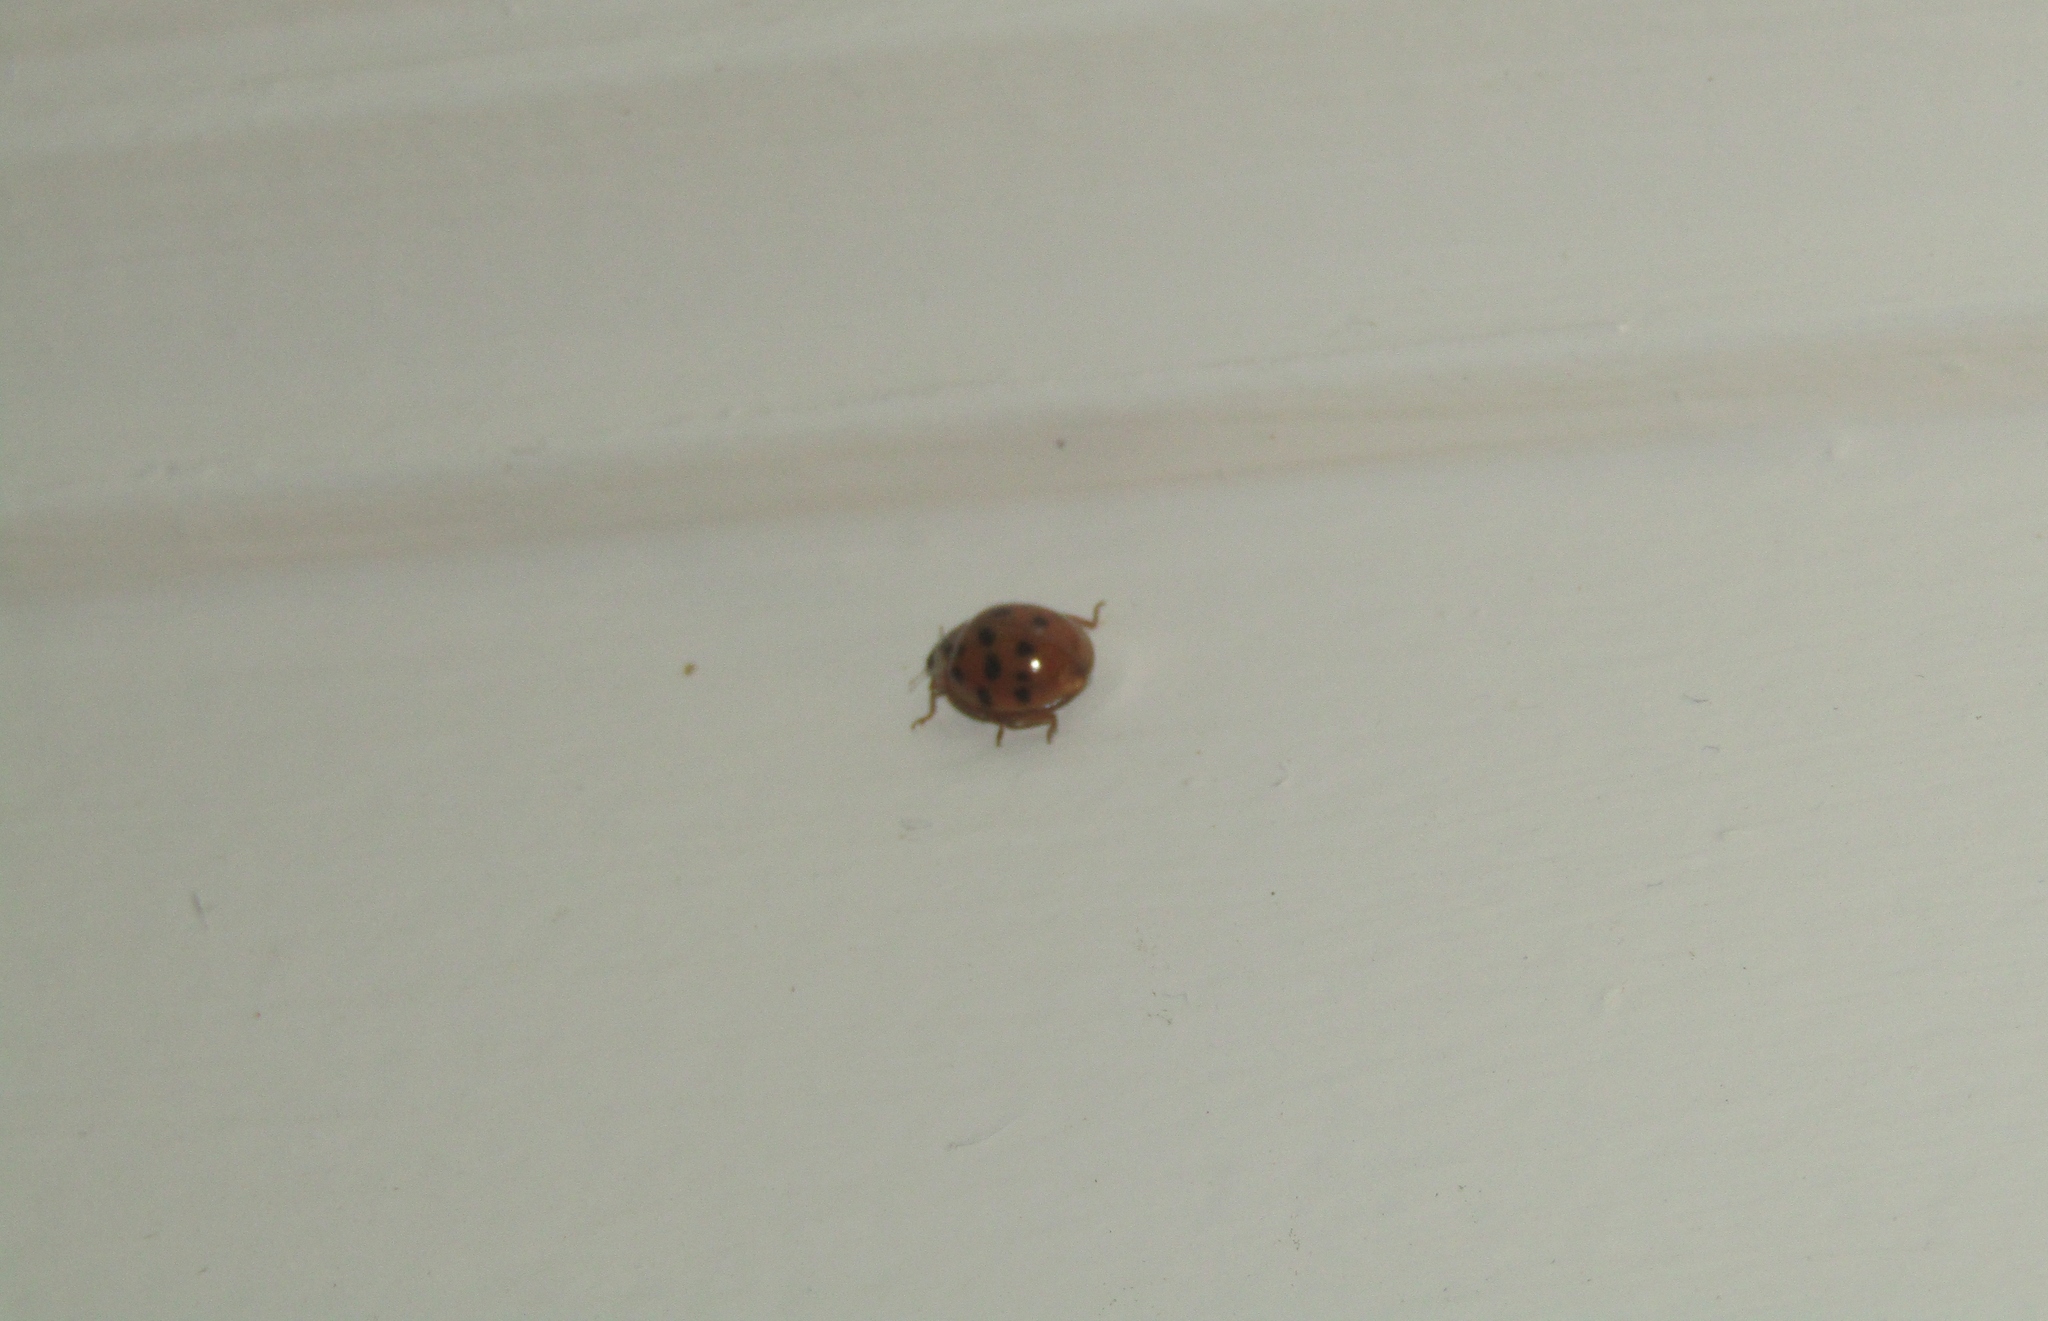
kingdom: Animalia
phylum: Arthropoda
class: Insecta
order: Coleoptera
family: Coccinellidae
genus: Harmonia
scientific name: Harmonia axyridis
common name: Harlequin ladybird
